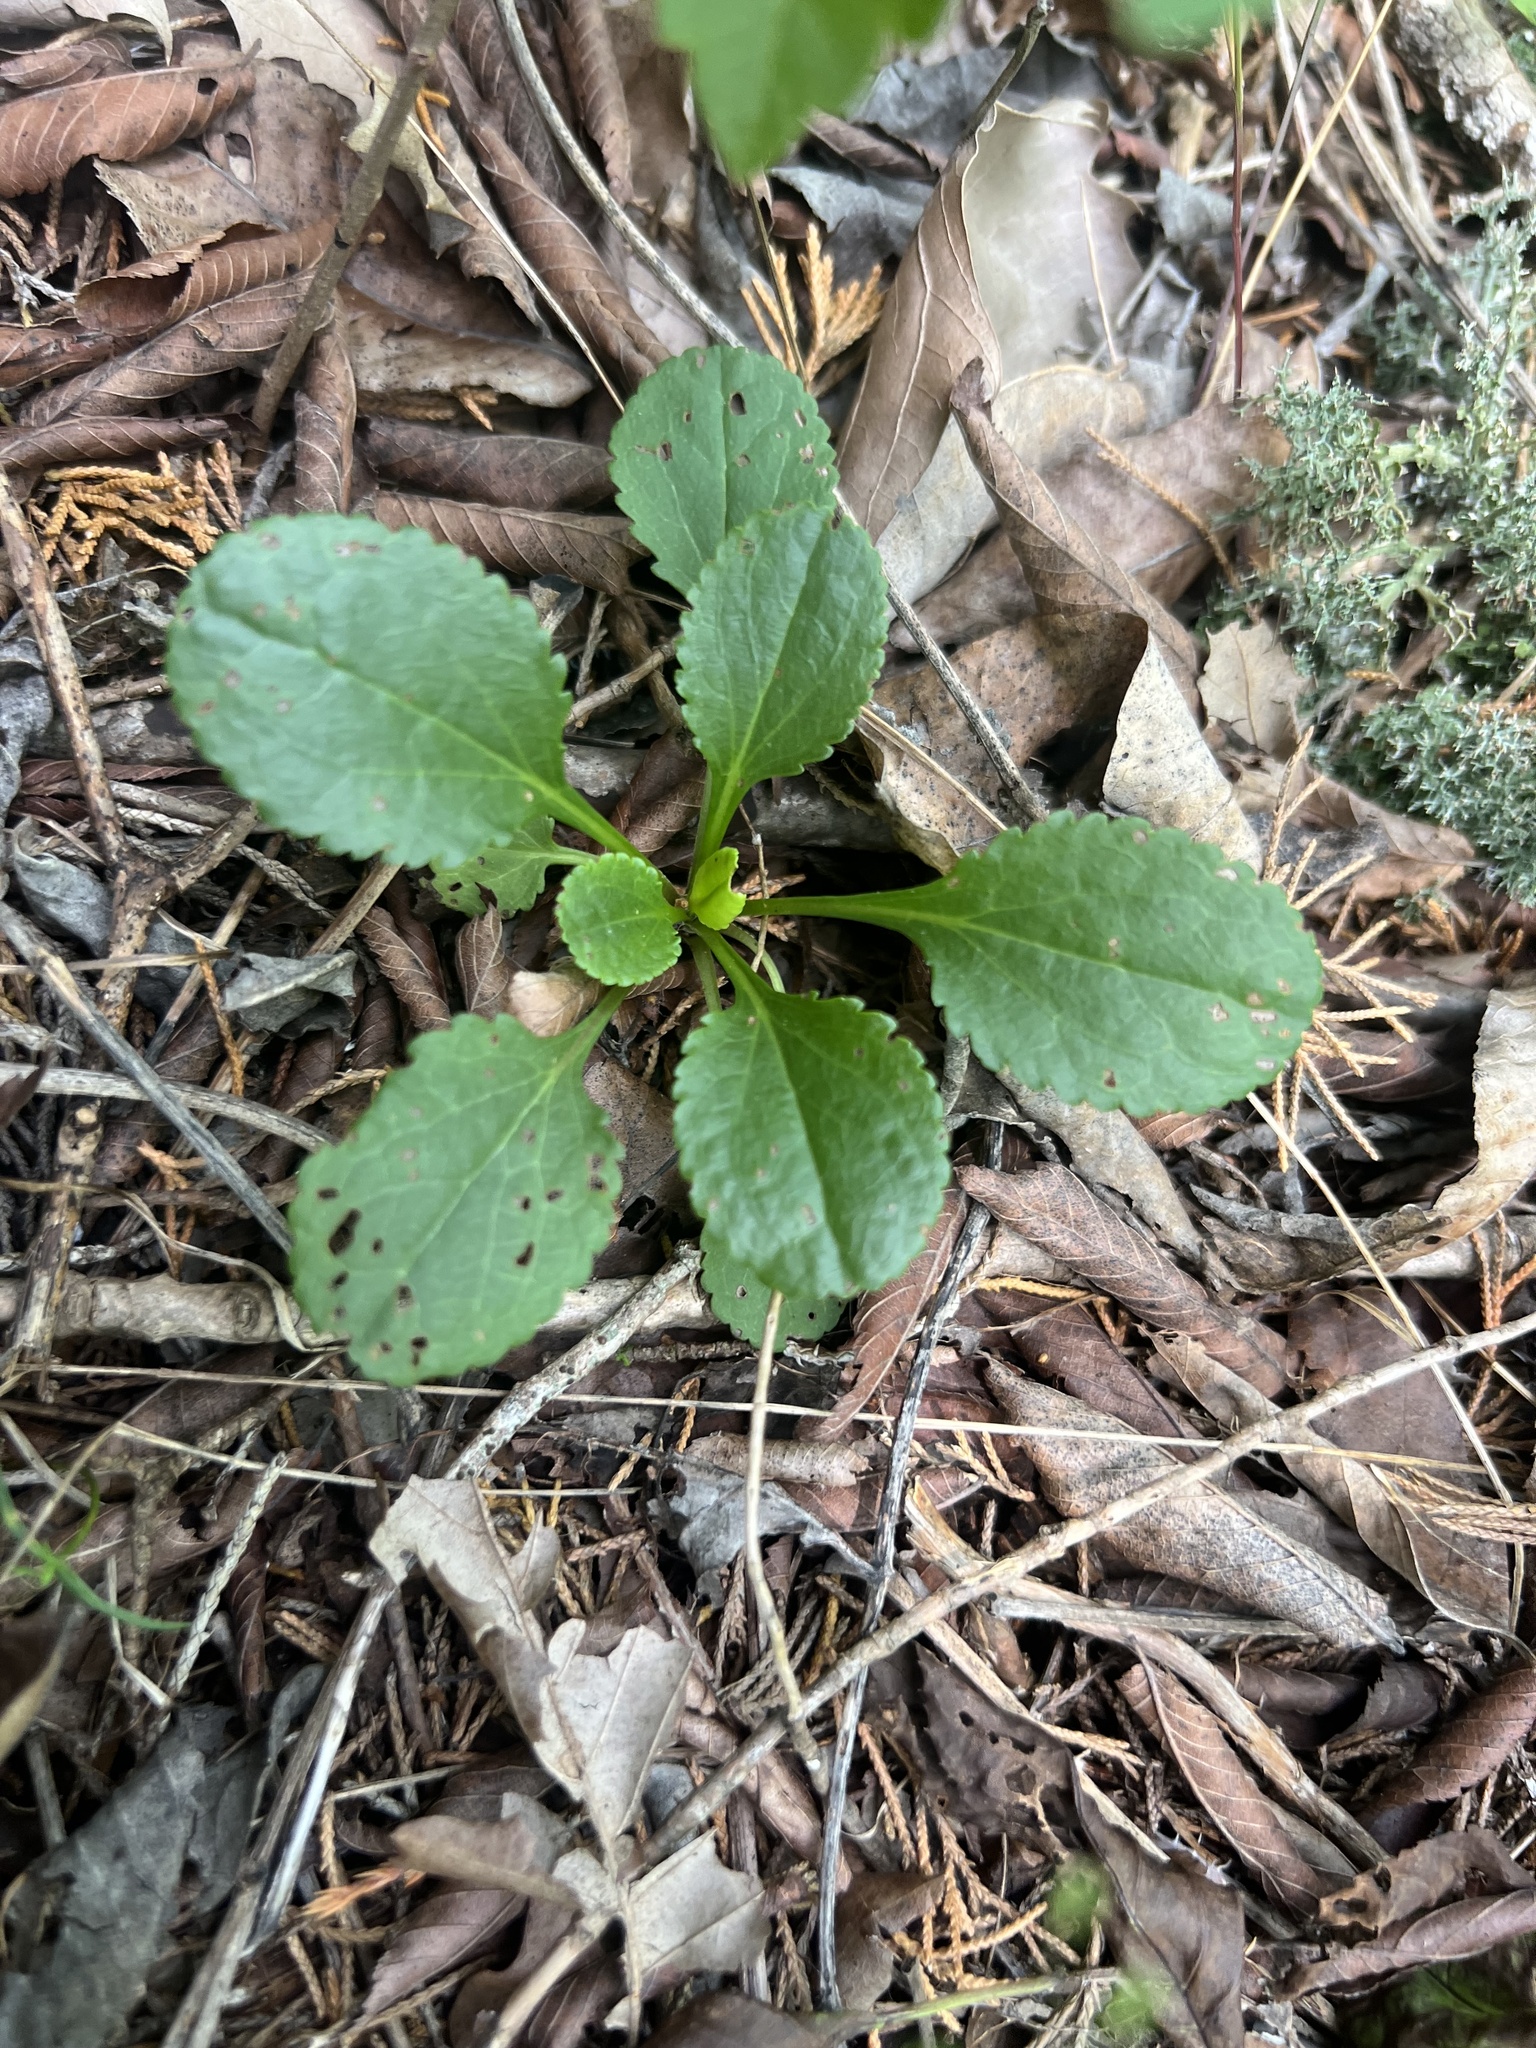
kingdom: Plantae
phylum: Tracheophyta
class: Magnoliopsida
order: Asterales
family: Asteraceae
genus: Packera
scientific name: Packera obovata
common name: Round-leaf ragwort
